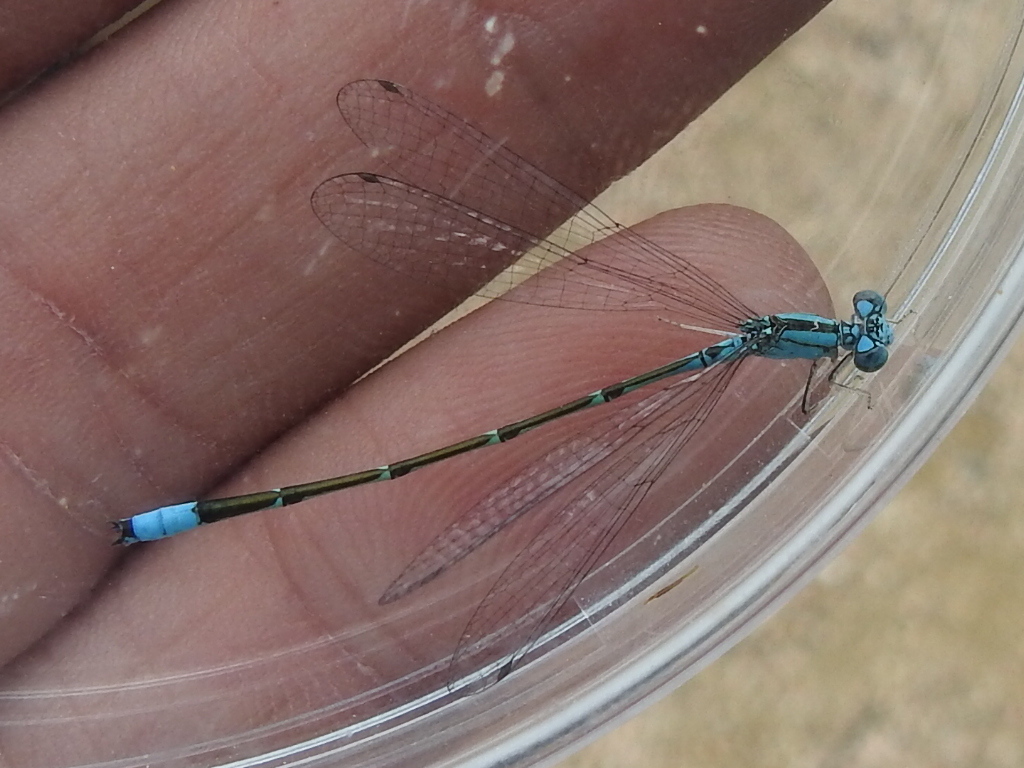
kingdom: Animalia
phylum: Arthropoda
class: Insecta
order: Odonata
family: Coenagrionidae
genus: Enallagma
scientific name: Enallagma traviatum
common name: Slender bluet
